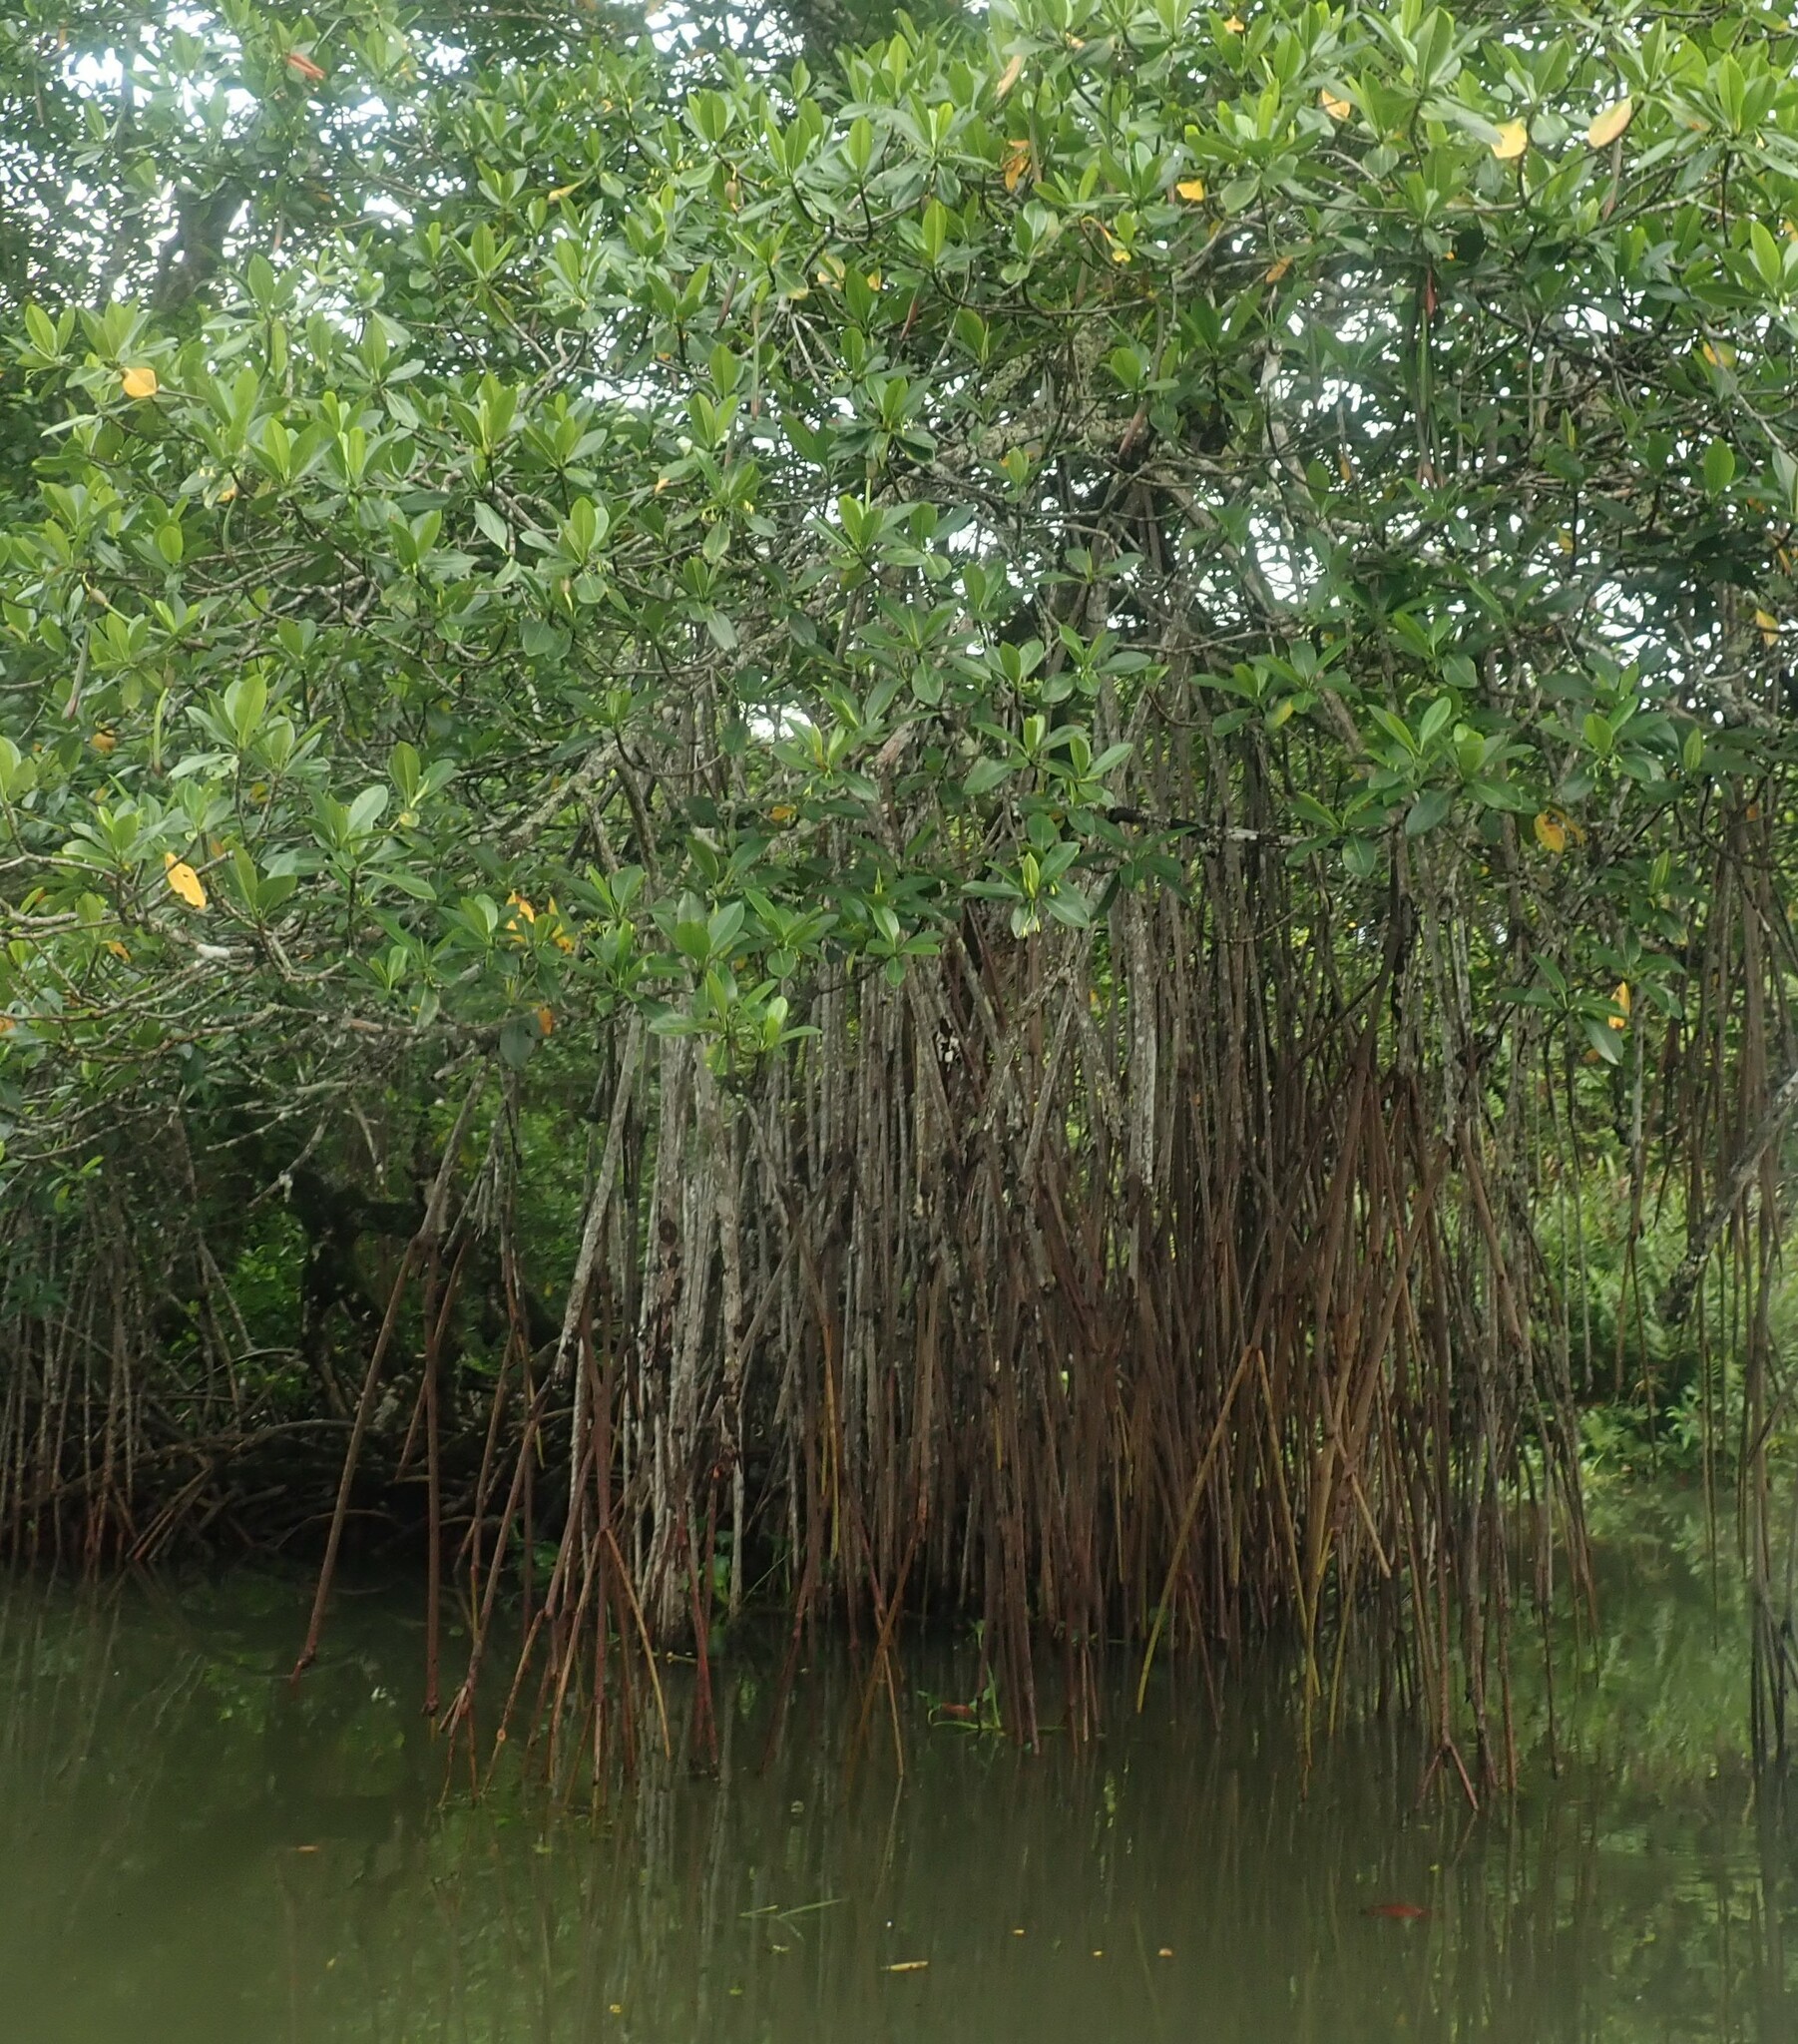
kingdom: Plantae
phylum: Tracheophyta
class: Magnoliopsida
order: Malpighiales
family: Rhizophoraceae
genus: Rhizophora
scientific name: Rhizophora mangle
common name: Red mangrove
